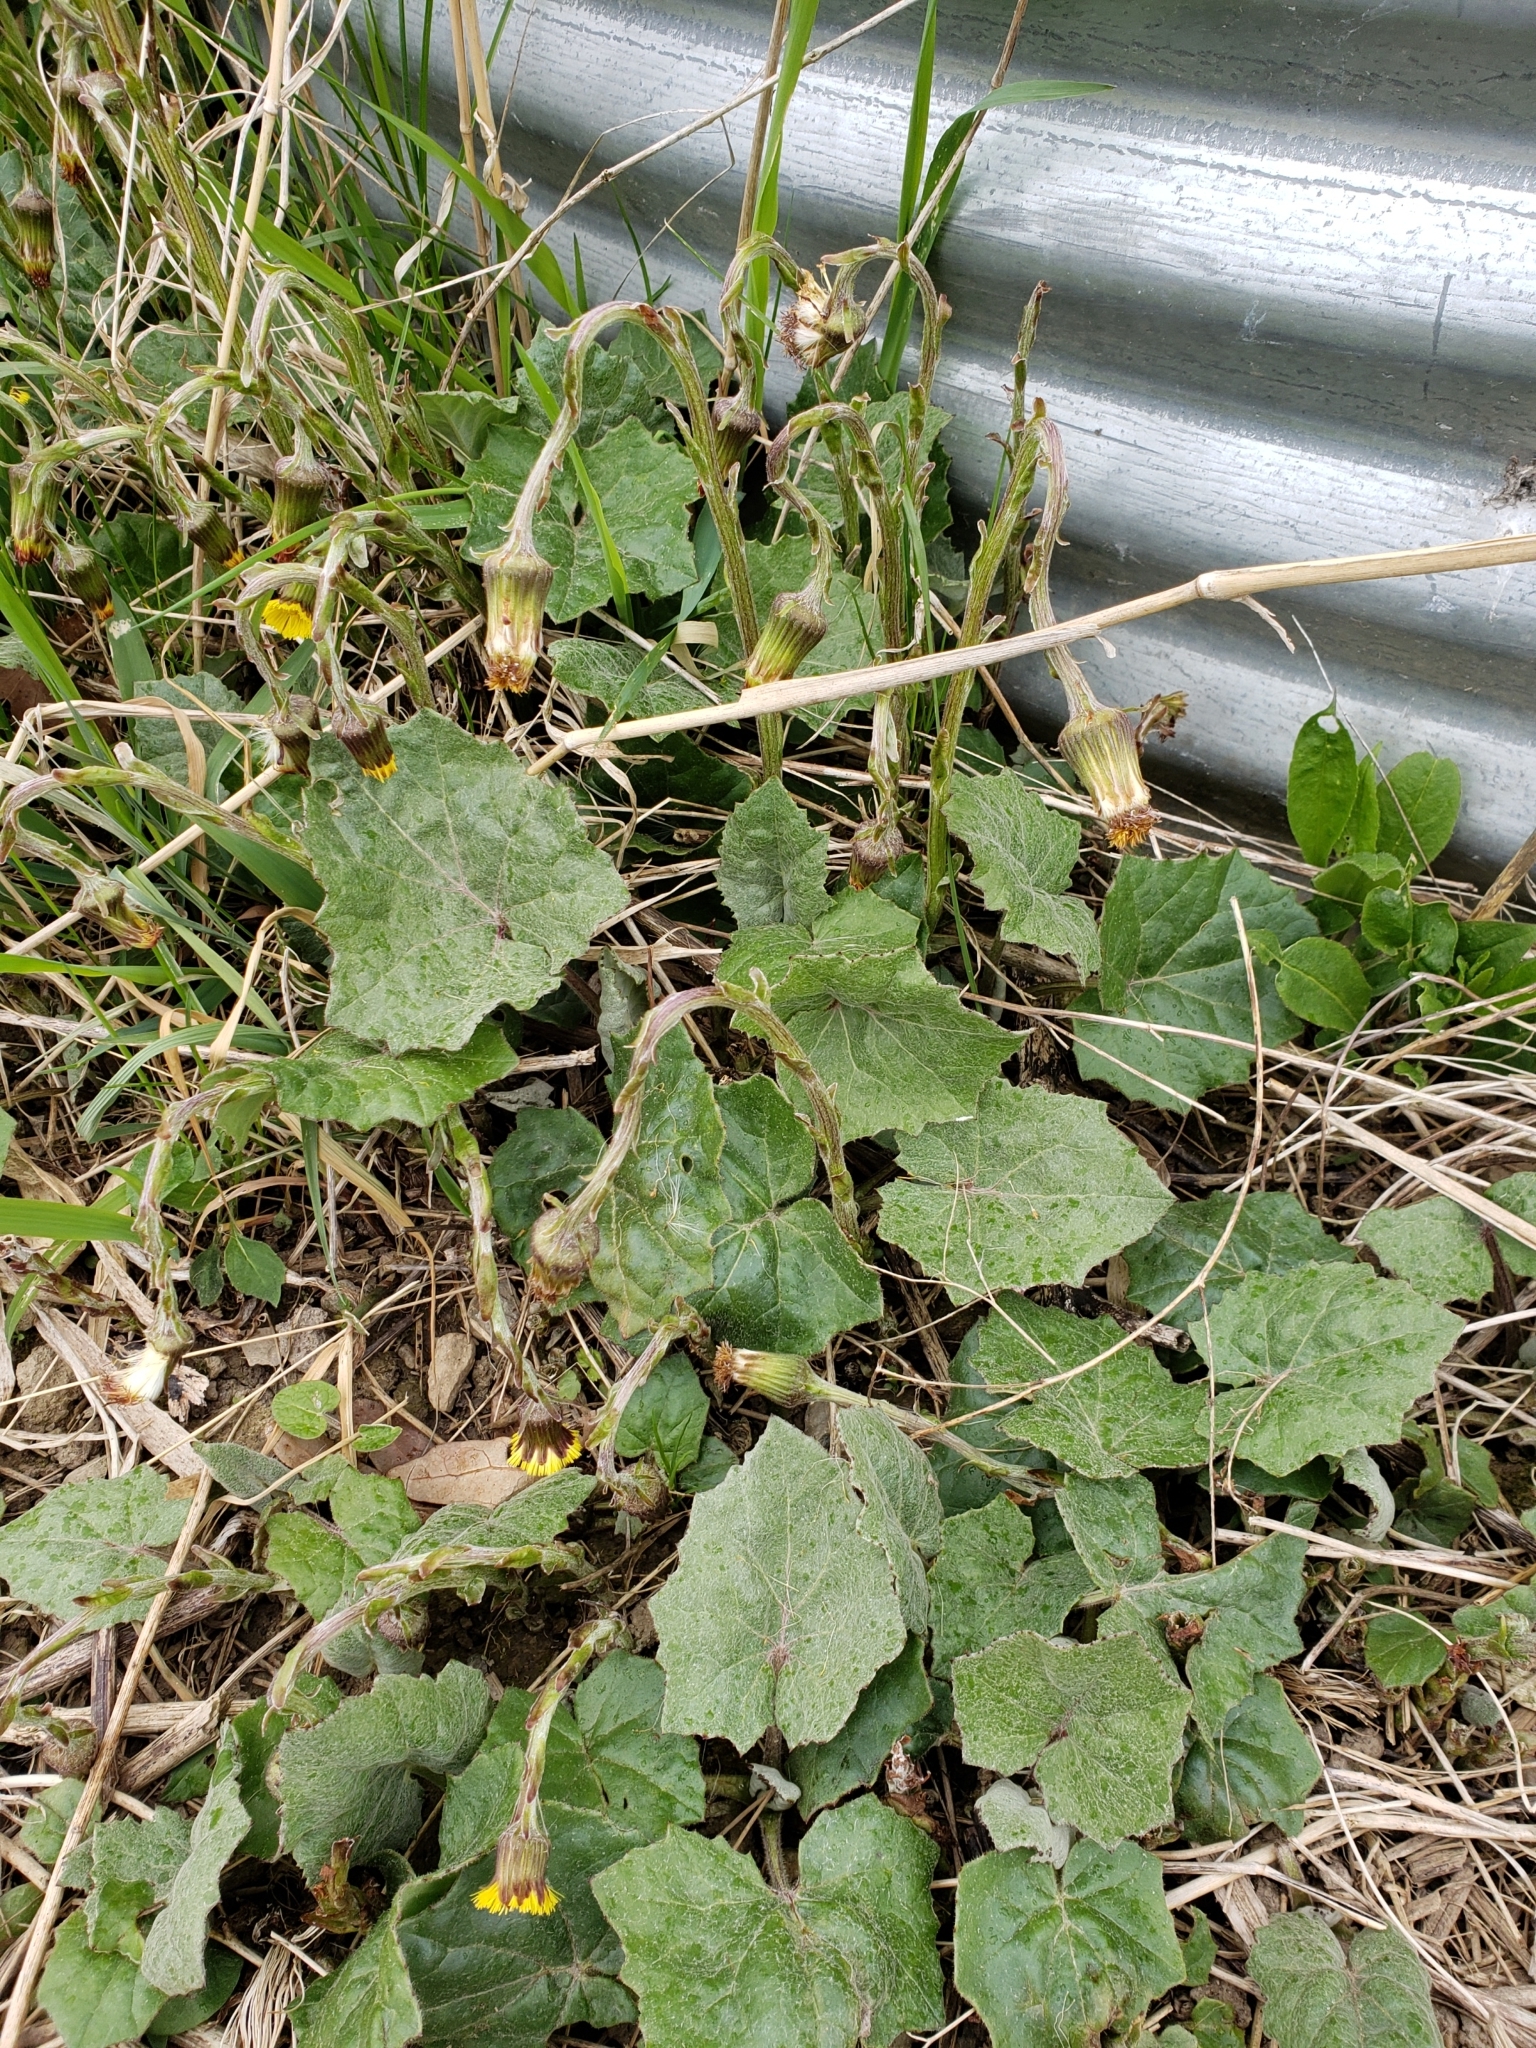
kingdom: Plantae
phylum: Tracheophyta
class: Magnoliopsida
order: Asterales
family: Asteraceae
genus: Tussilago
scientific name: Tussilago farfara
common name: Coltsfoot
